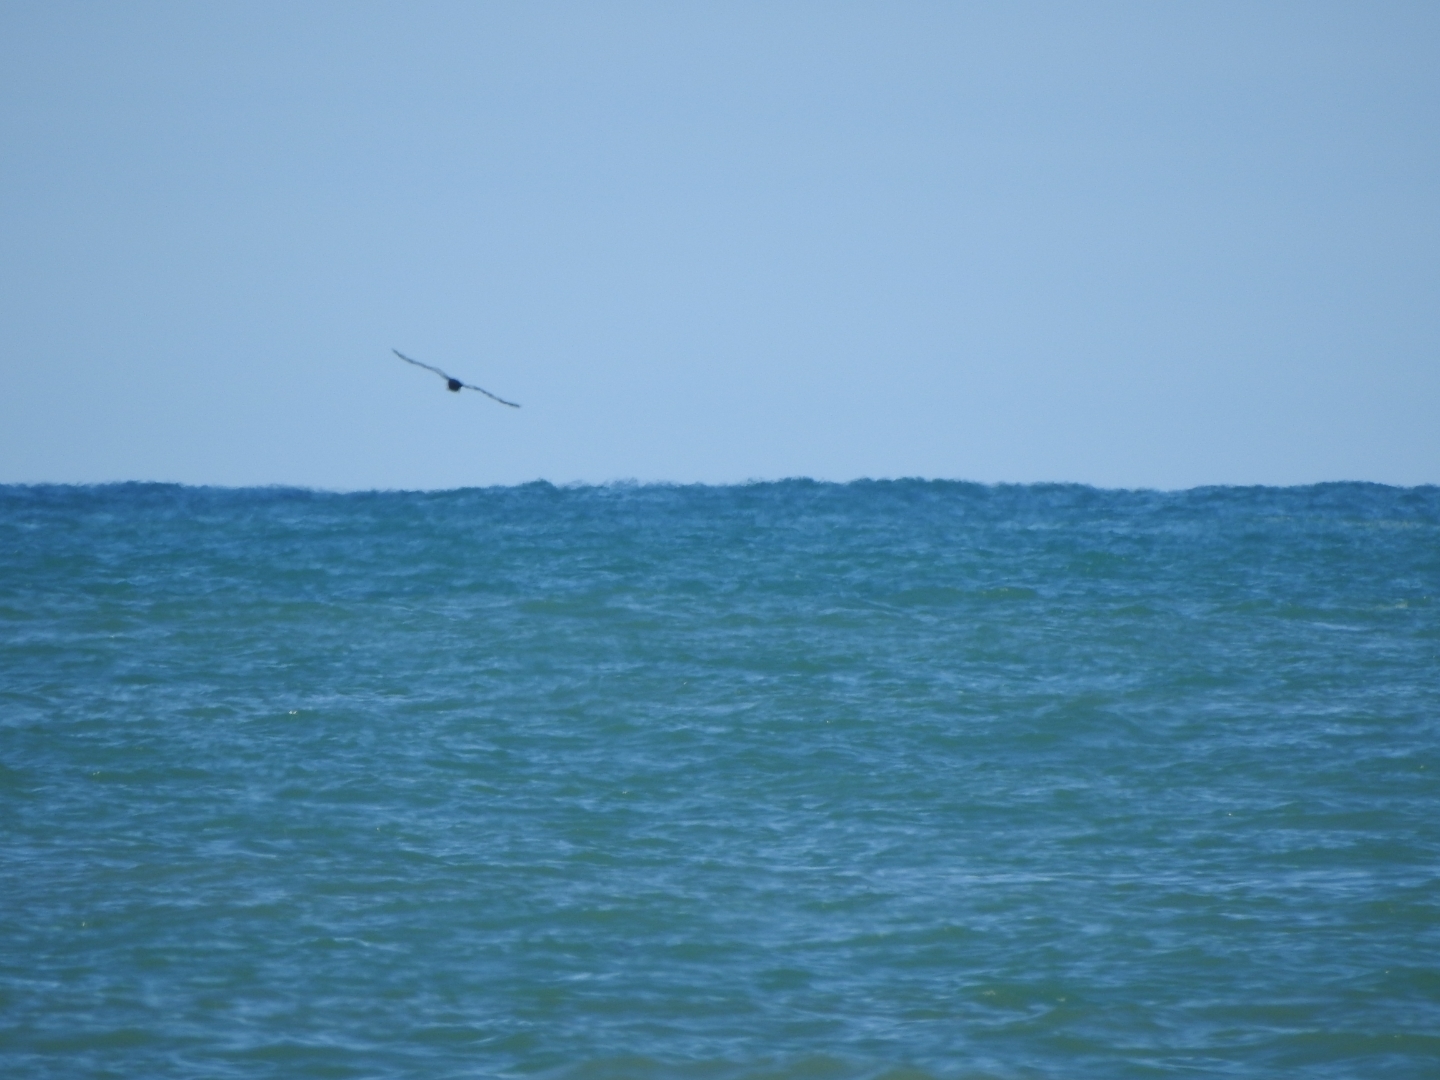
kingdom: Animalia
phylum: Chordata
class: Aves
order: Procellariiformes
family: Procellariidae
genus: Macronectes
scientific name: Macronectes halli
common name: Northern giant petrel
